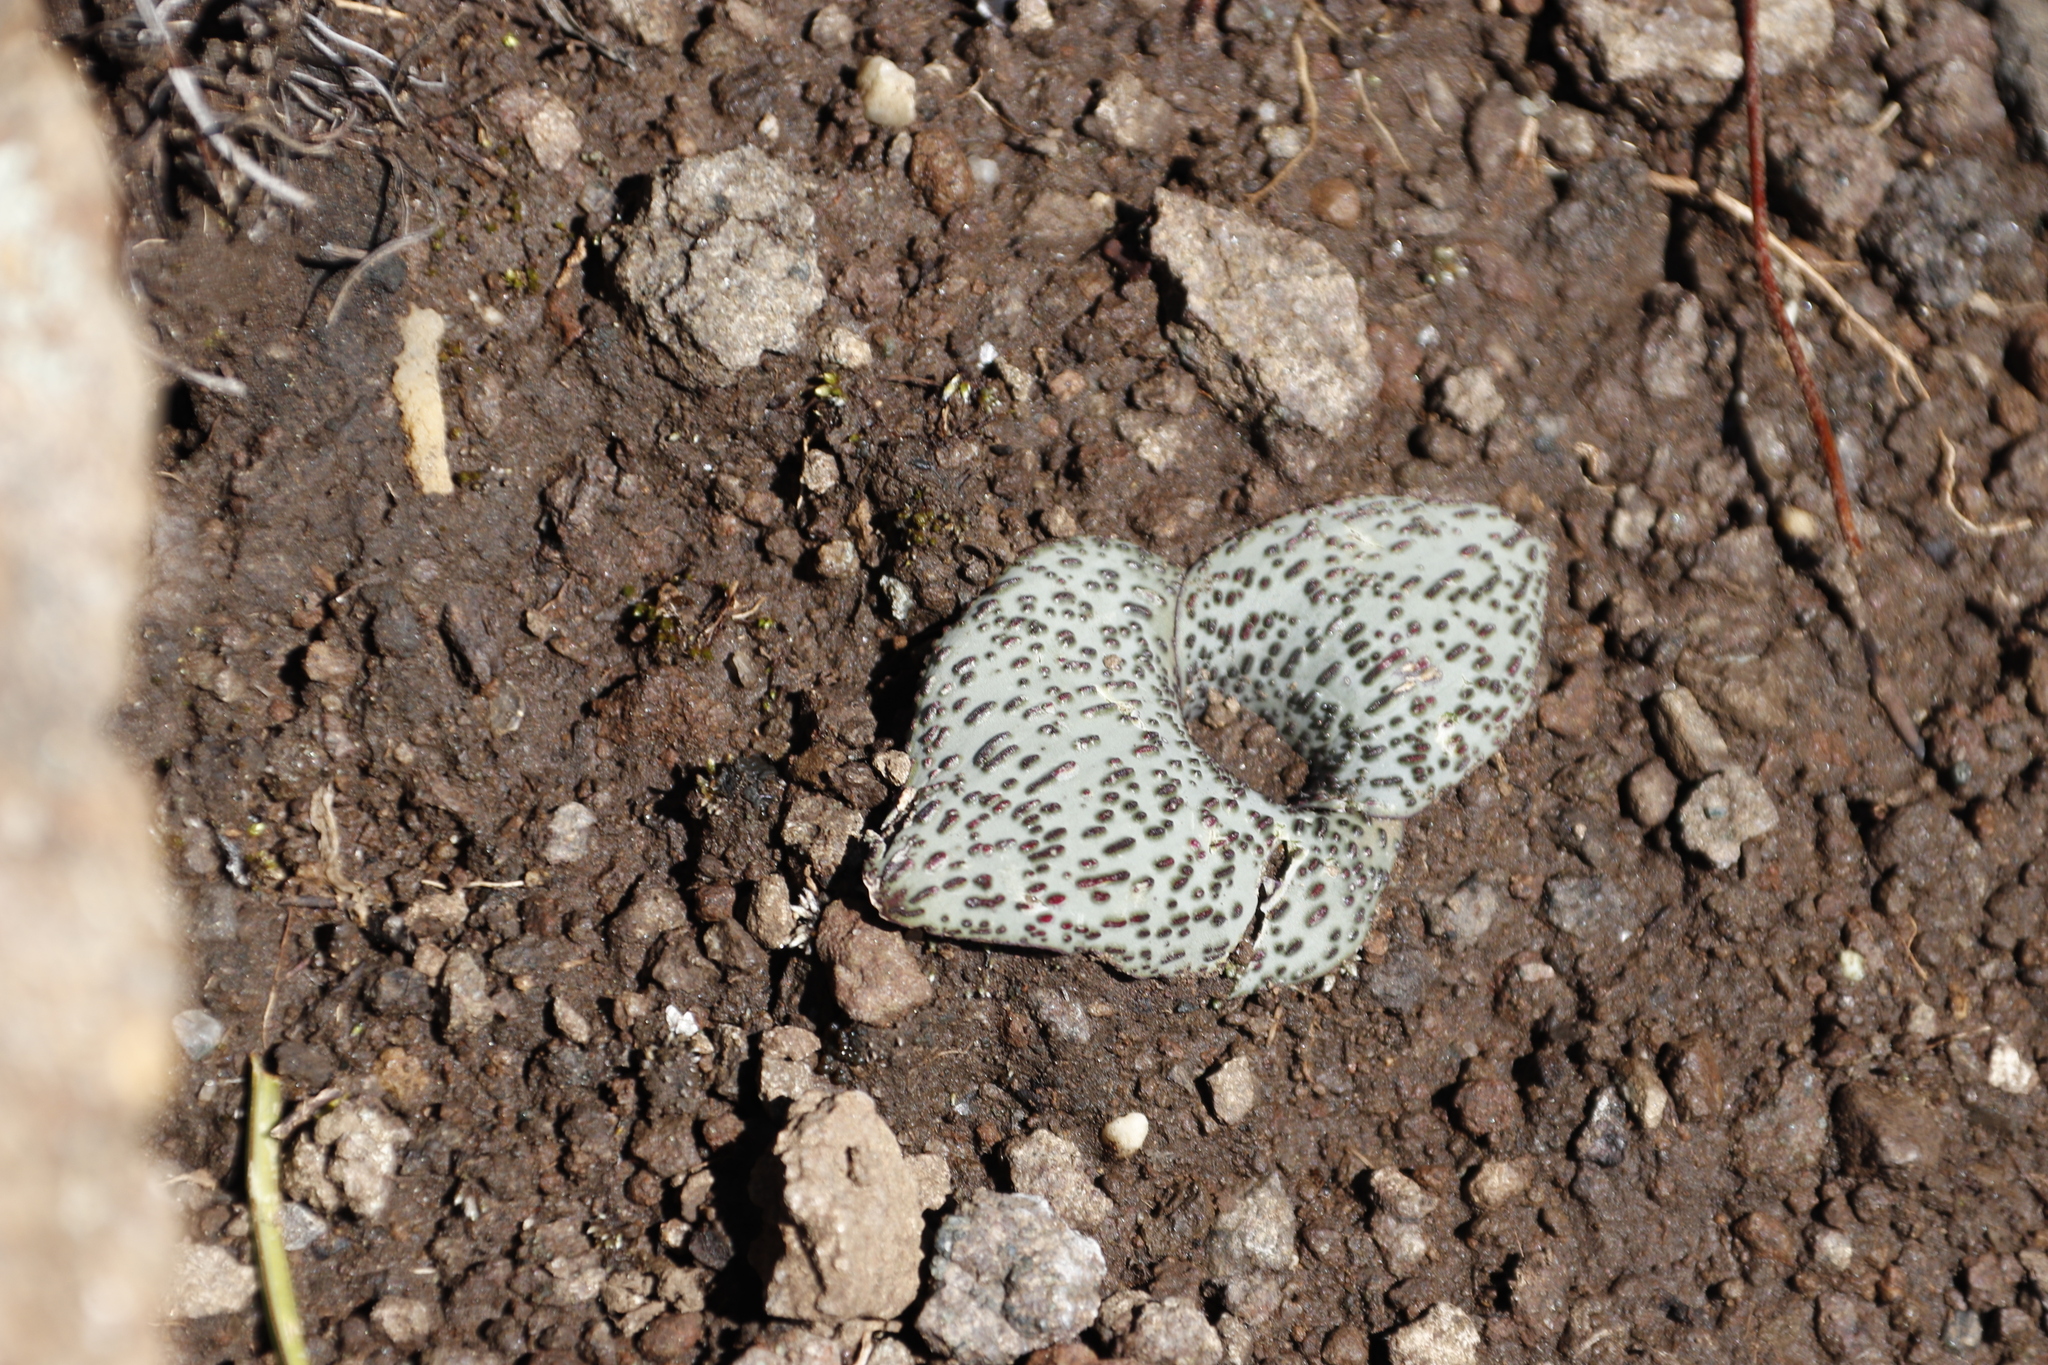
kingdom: Plantae
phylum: Tracheophyta
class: Liliopsida
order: Asparagales
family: Asparagaceae
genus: Massonia
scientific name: Massonia amoena
